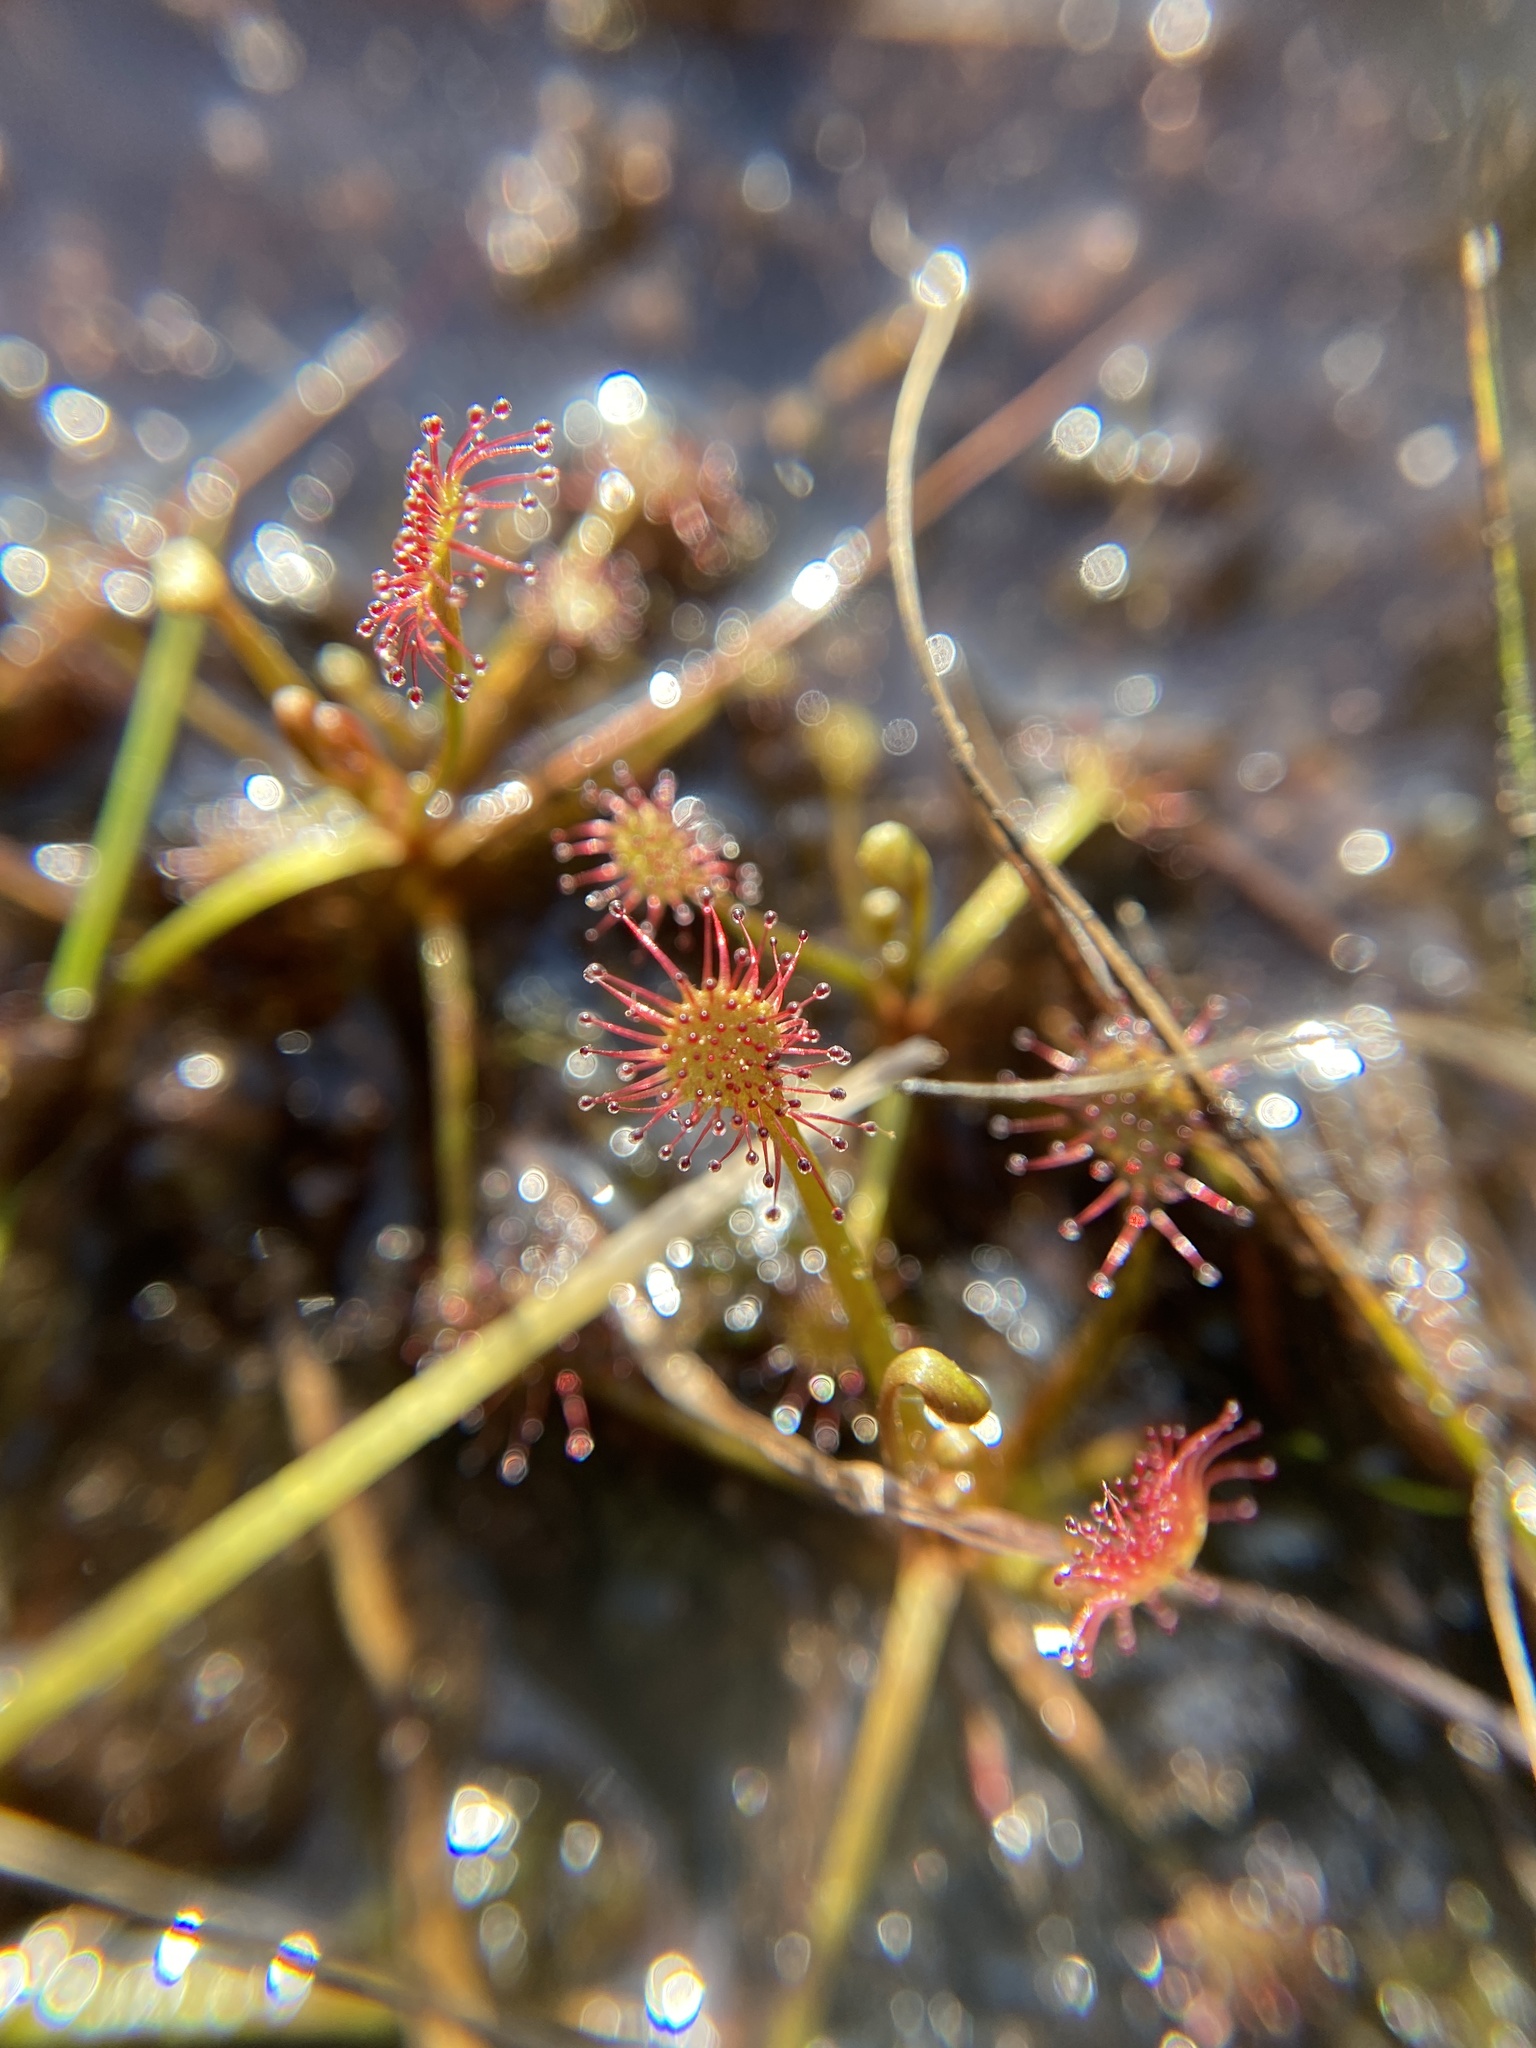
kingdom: Plantae
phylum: Tracheophyta
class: Magnoliopsida
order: Caryophyllales
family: Droseraceae
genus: Drosera
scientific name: Drosera intermedia
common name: Oblong-leaved sundew
